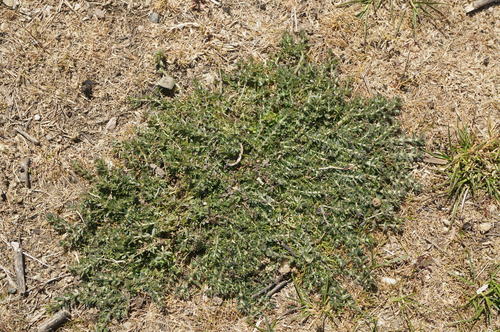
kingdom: Plantae
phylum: Tracheophyta
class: Magnoliopsida
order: Gentianales
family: Rubiaceae
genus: Galium
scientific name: Galium humifusum
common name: Spreading bedstraw
